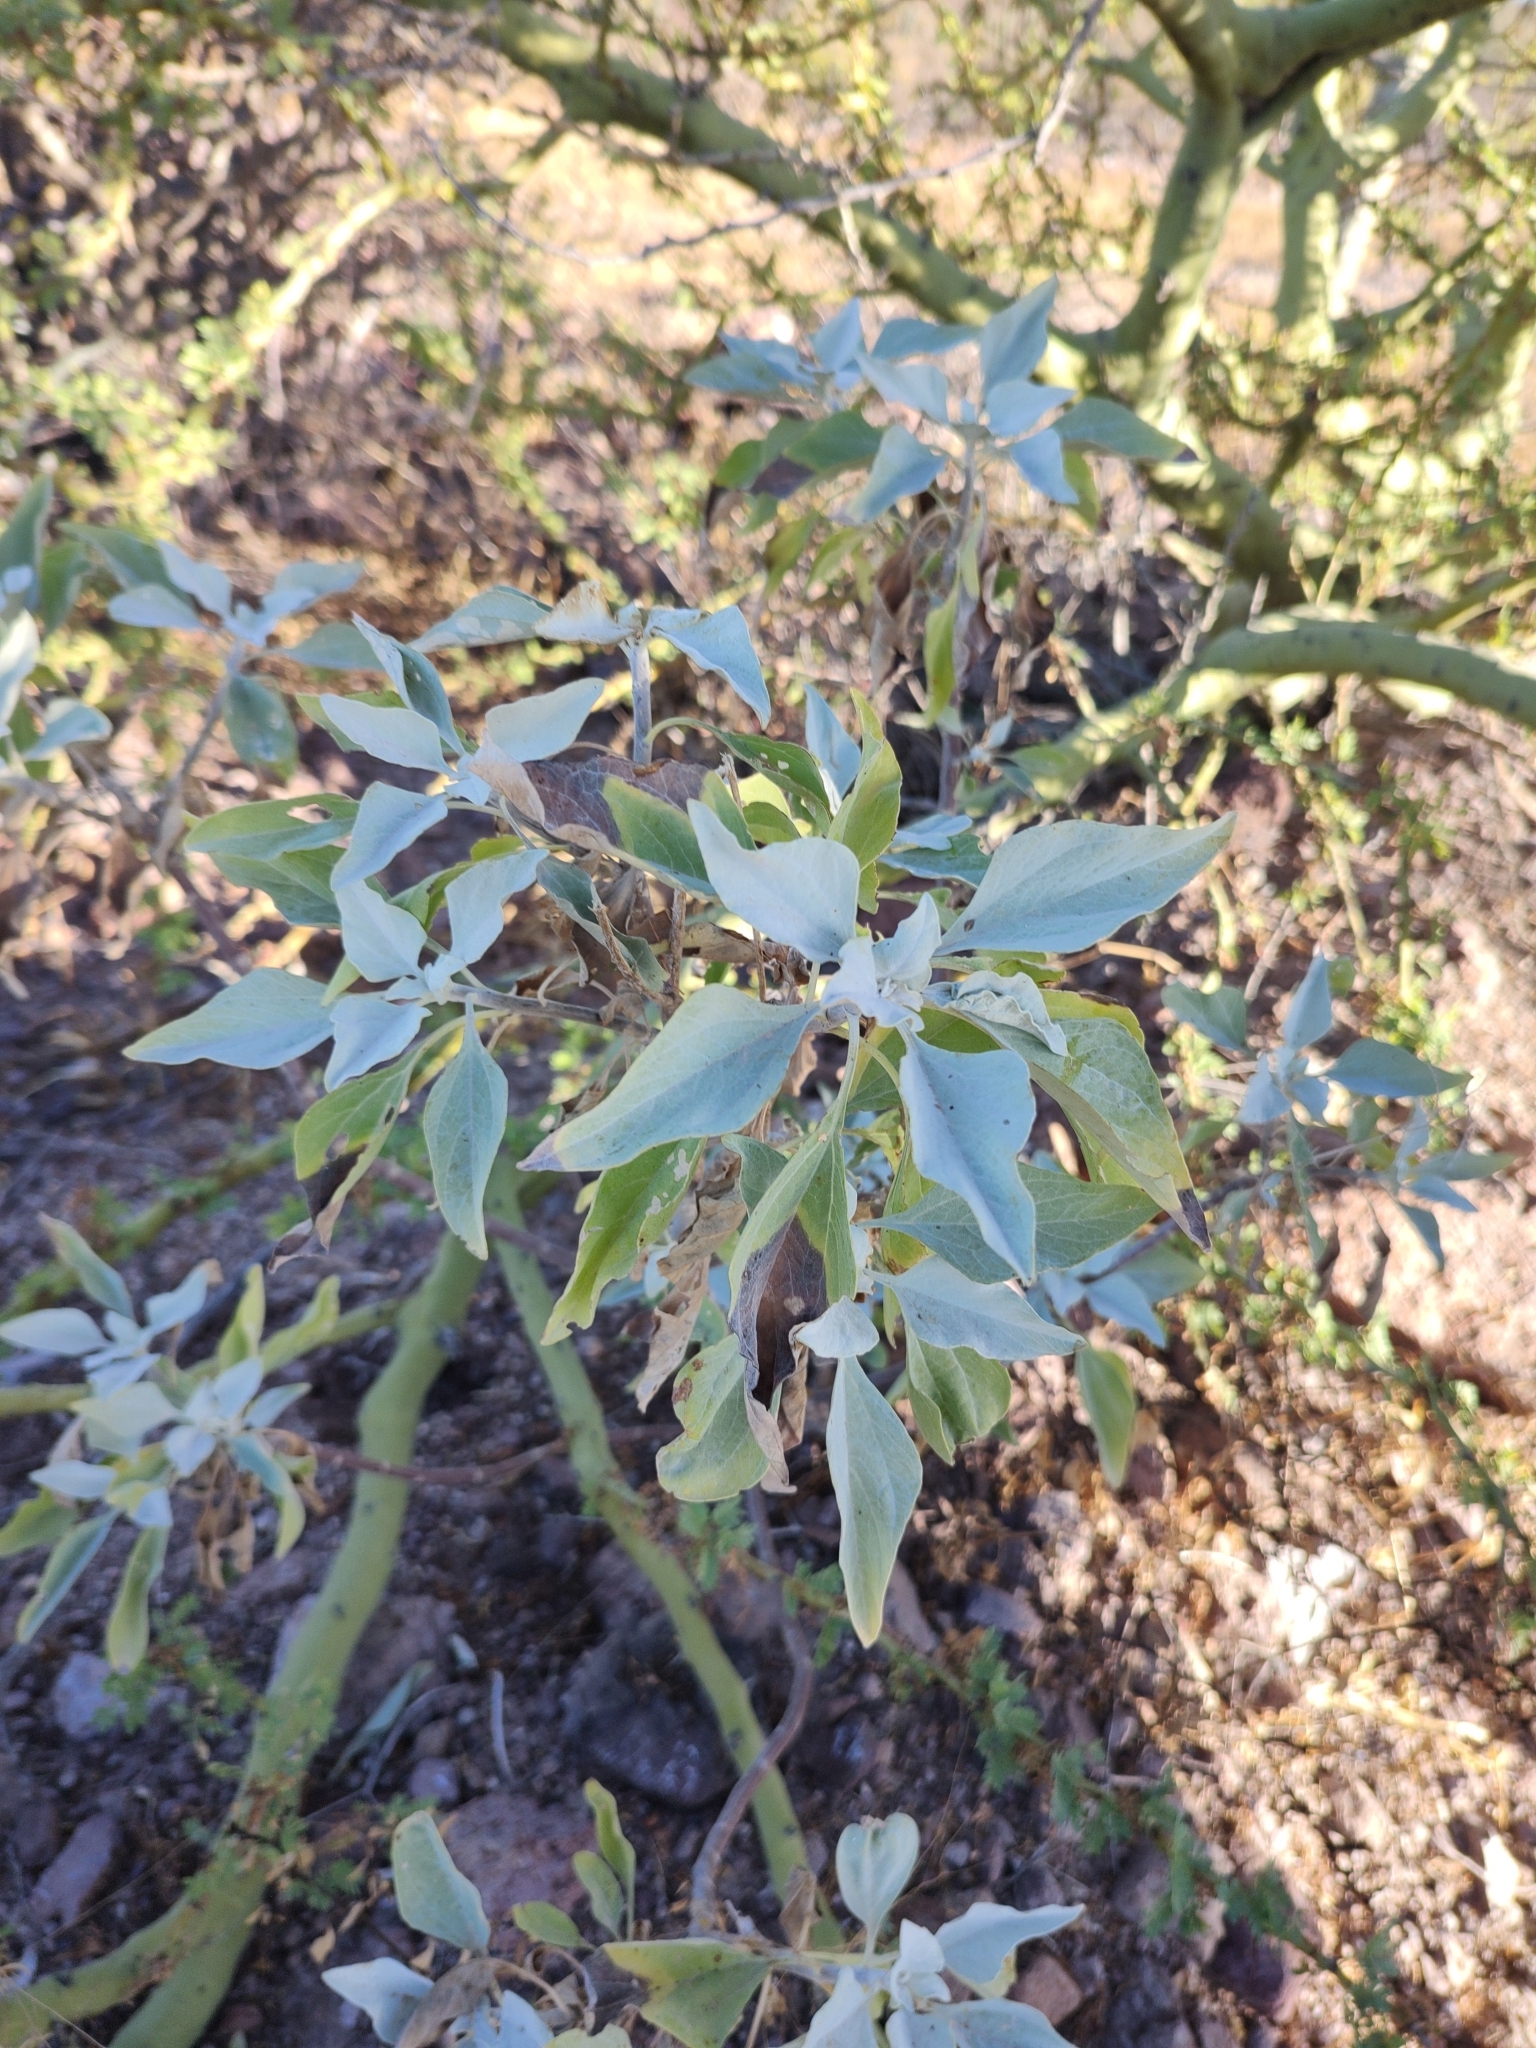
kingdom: Plantae
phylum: Tracheophyta
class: Magnoliopsida
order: Asterales
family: Asteraceae
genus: Encelia
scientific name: Encelia farinosa
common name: Brittlebush
